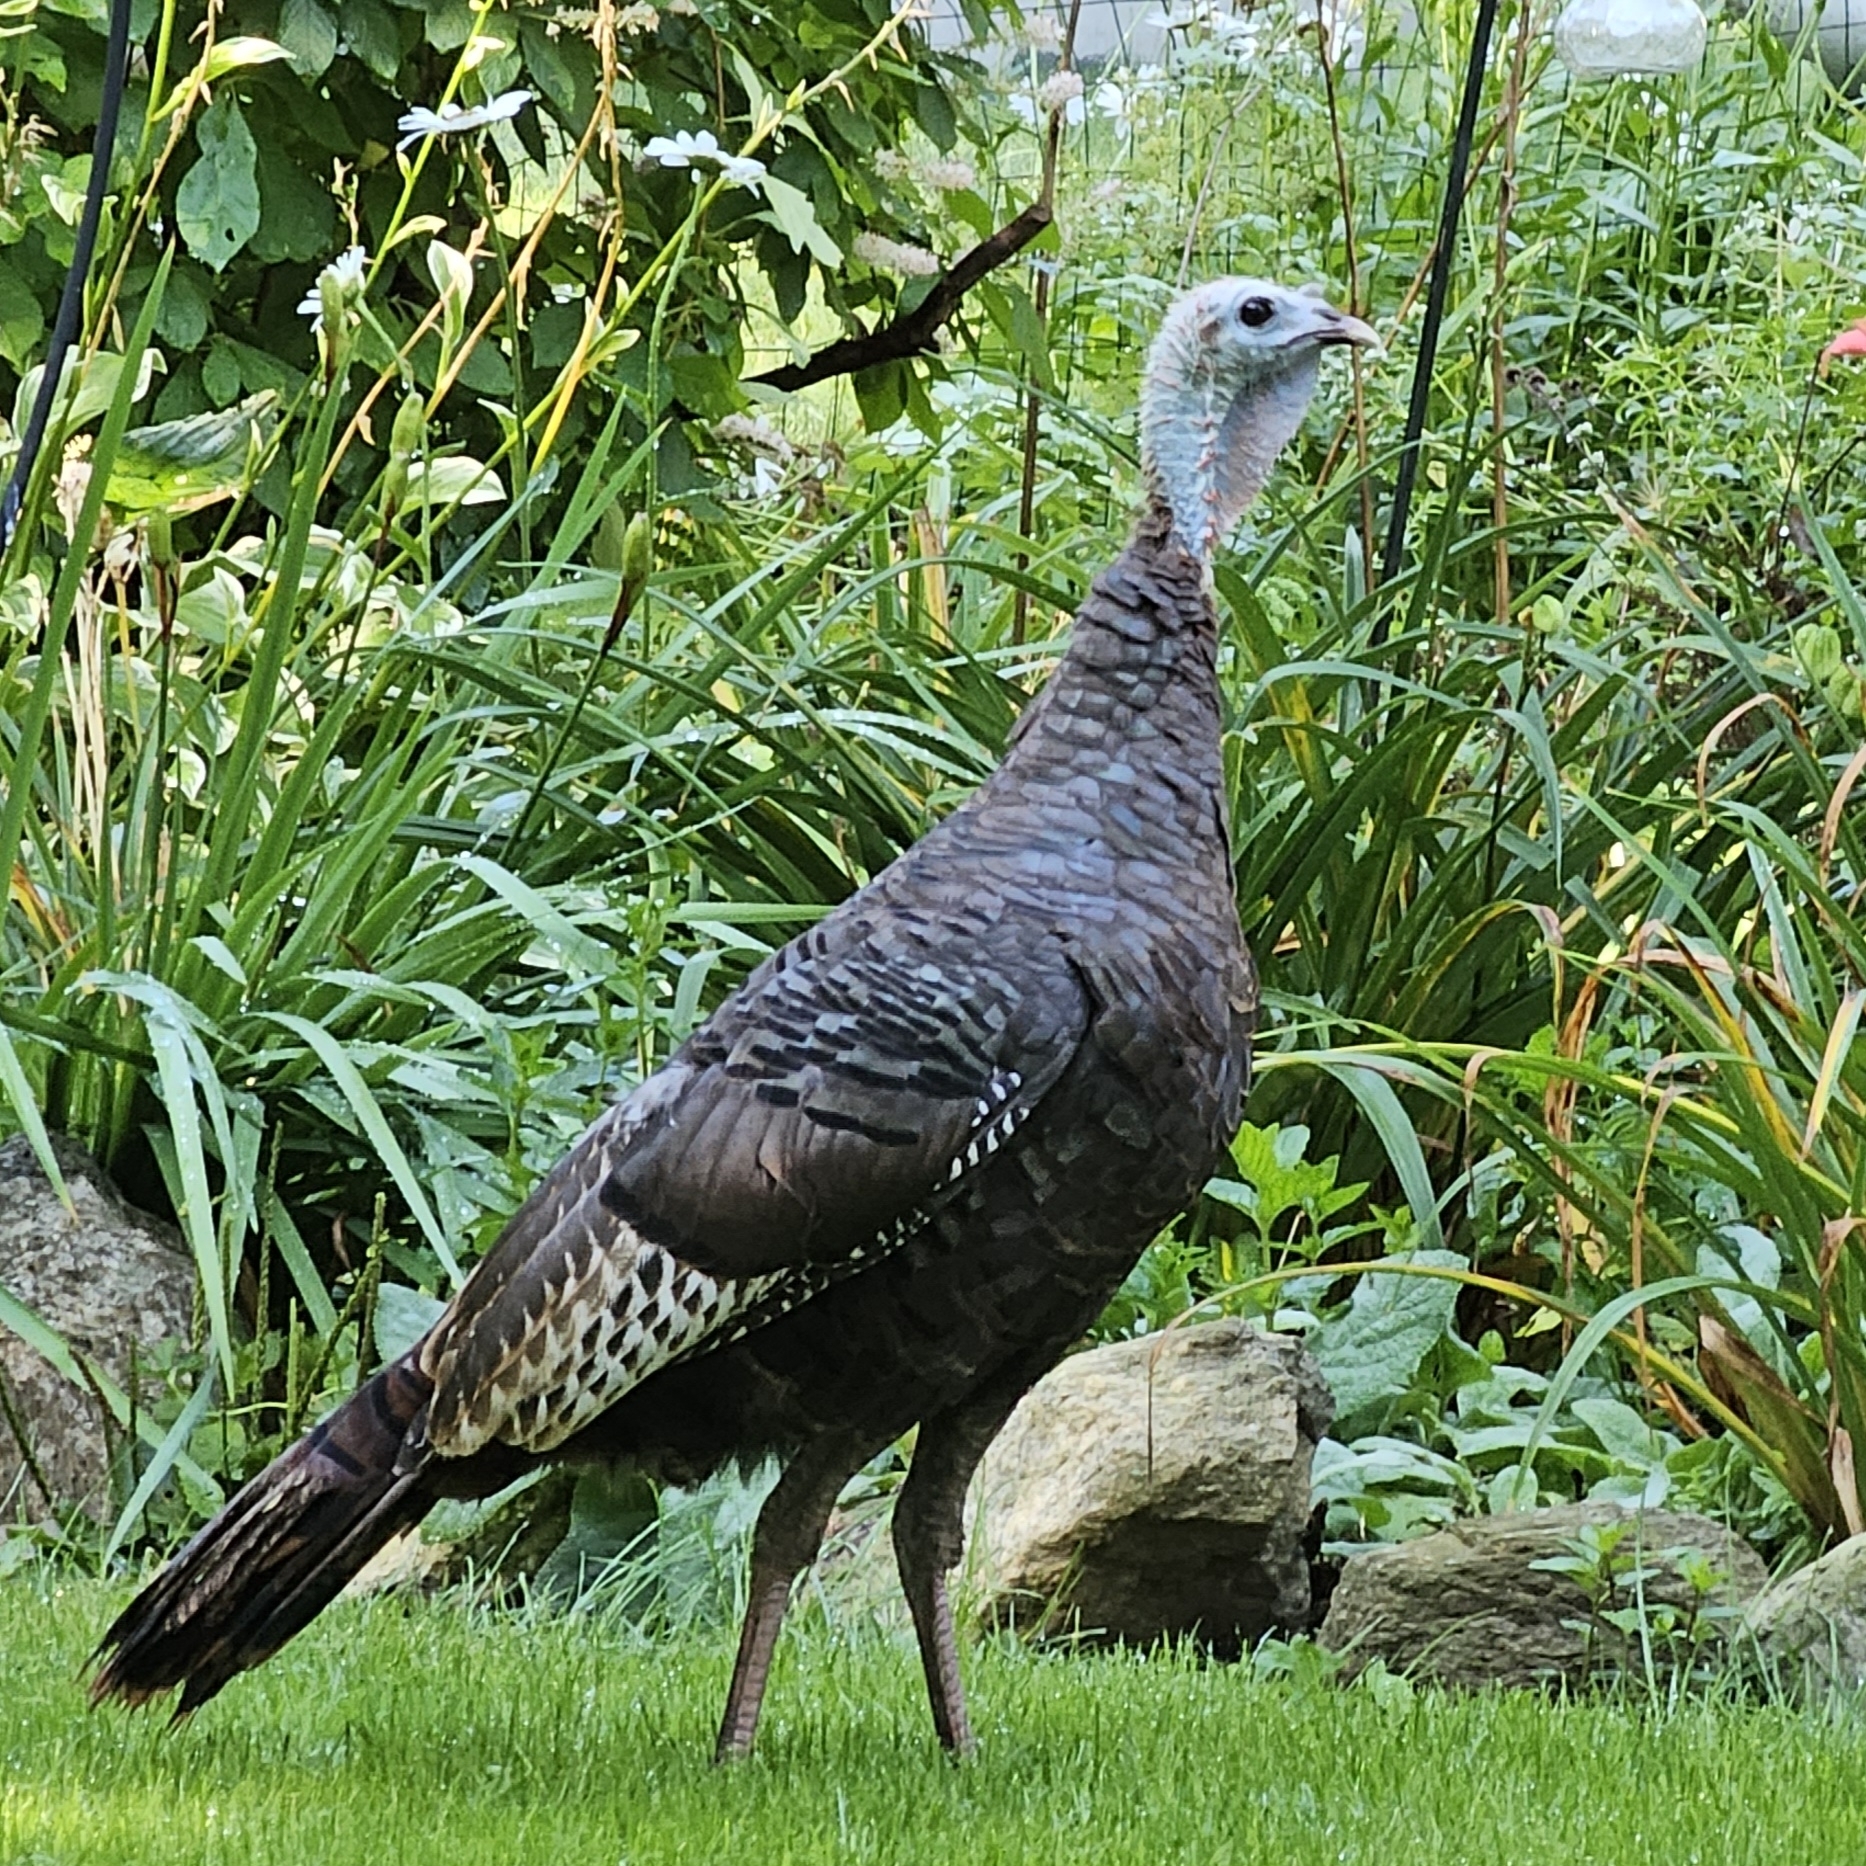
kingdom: Animalia
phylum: Chordata
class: Aves
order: Galliformes
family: Phasianidae
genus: Meleagris
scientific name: Meleagris gallopavo
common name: Wild turkey
